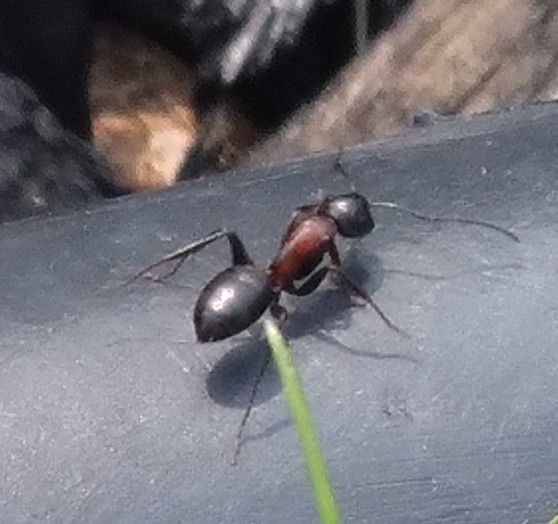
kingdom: Animalia
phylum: Arthropoda
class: Insecta
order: Hymenoptera
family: Formicidae
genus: Camponotus
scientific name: Camponotus novaeboracensis
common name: New york carpenter ant
